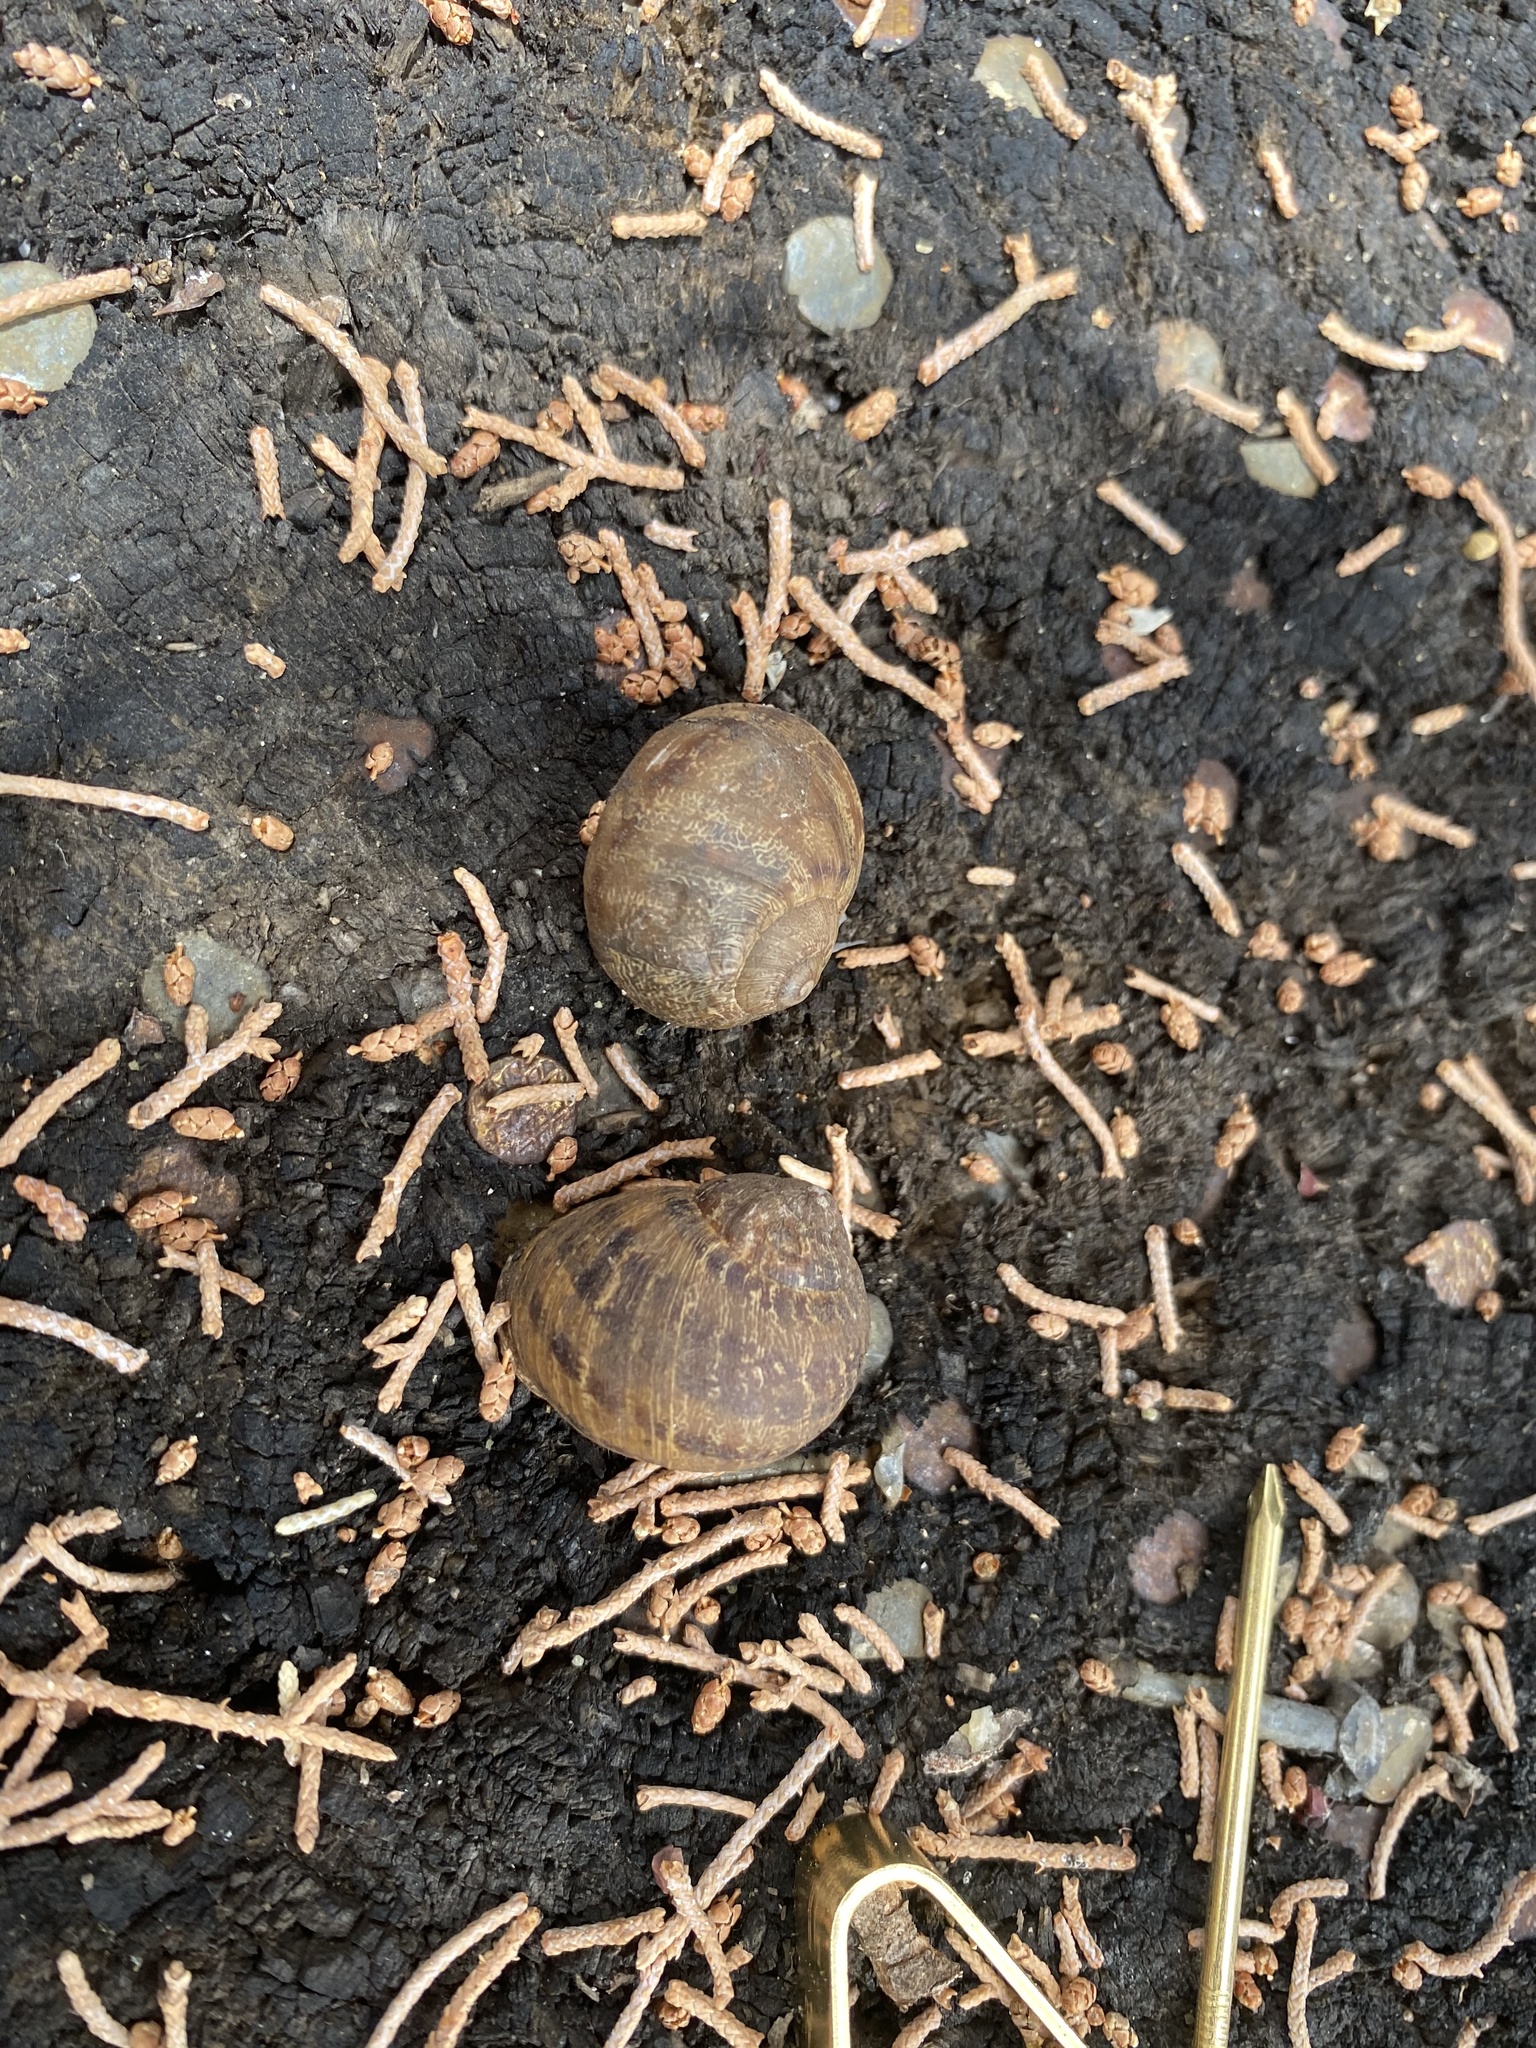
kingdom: Animalia
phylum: Mollusca
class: Gastropoda
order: Stylommatophora
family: Helicidae
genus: Cornu
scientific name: Cornu aspersum
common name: Brown garden snail
